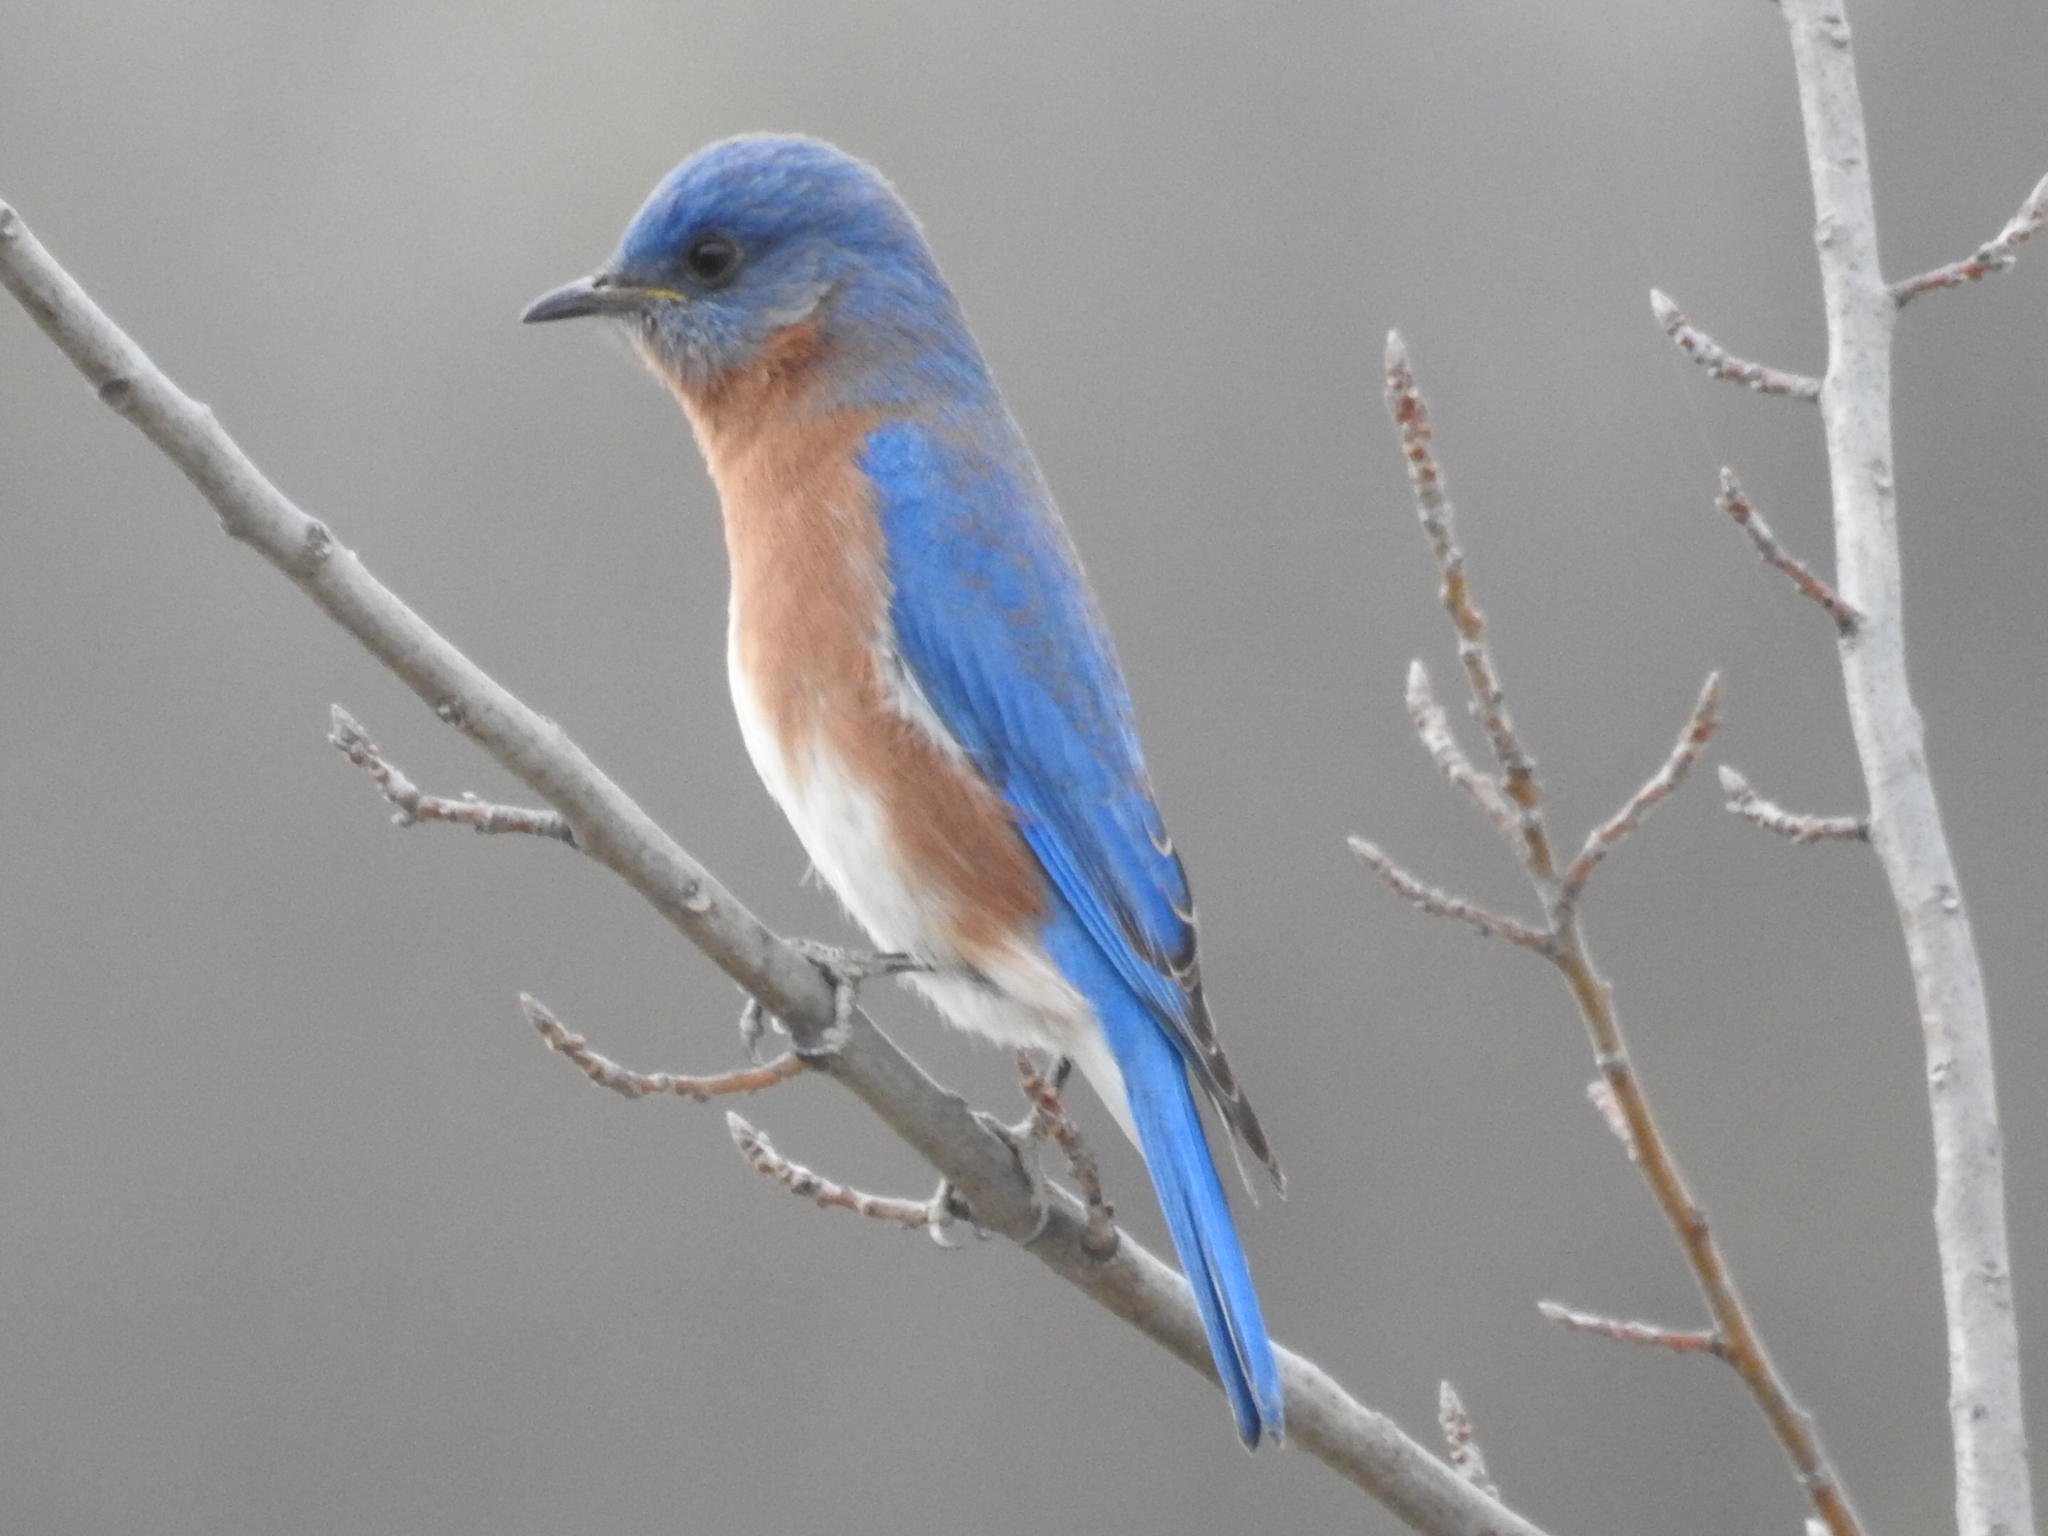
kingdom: Animalia
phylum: Chordata
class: Aves
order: Passeriformes
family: Turdidae
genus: Sialia
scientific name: Sialia sialis
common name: Eastern bluebird
